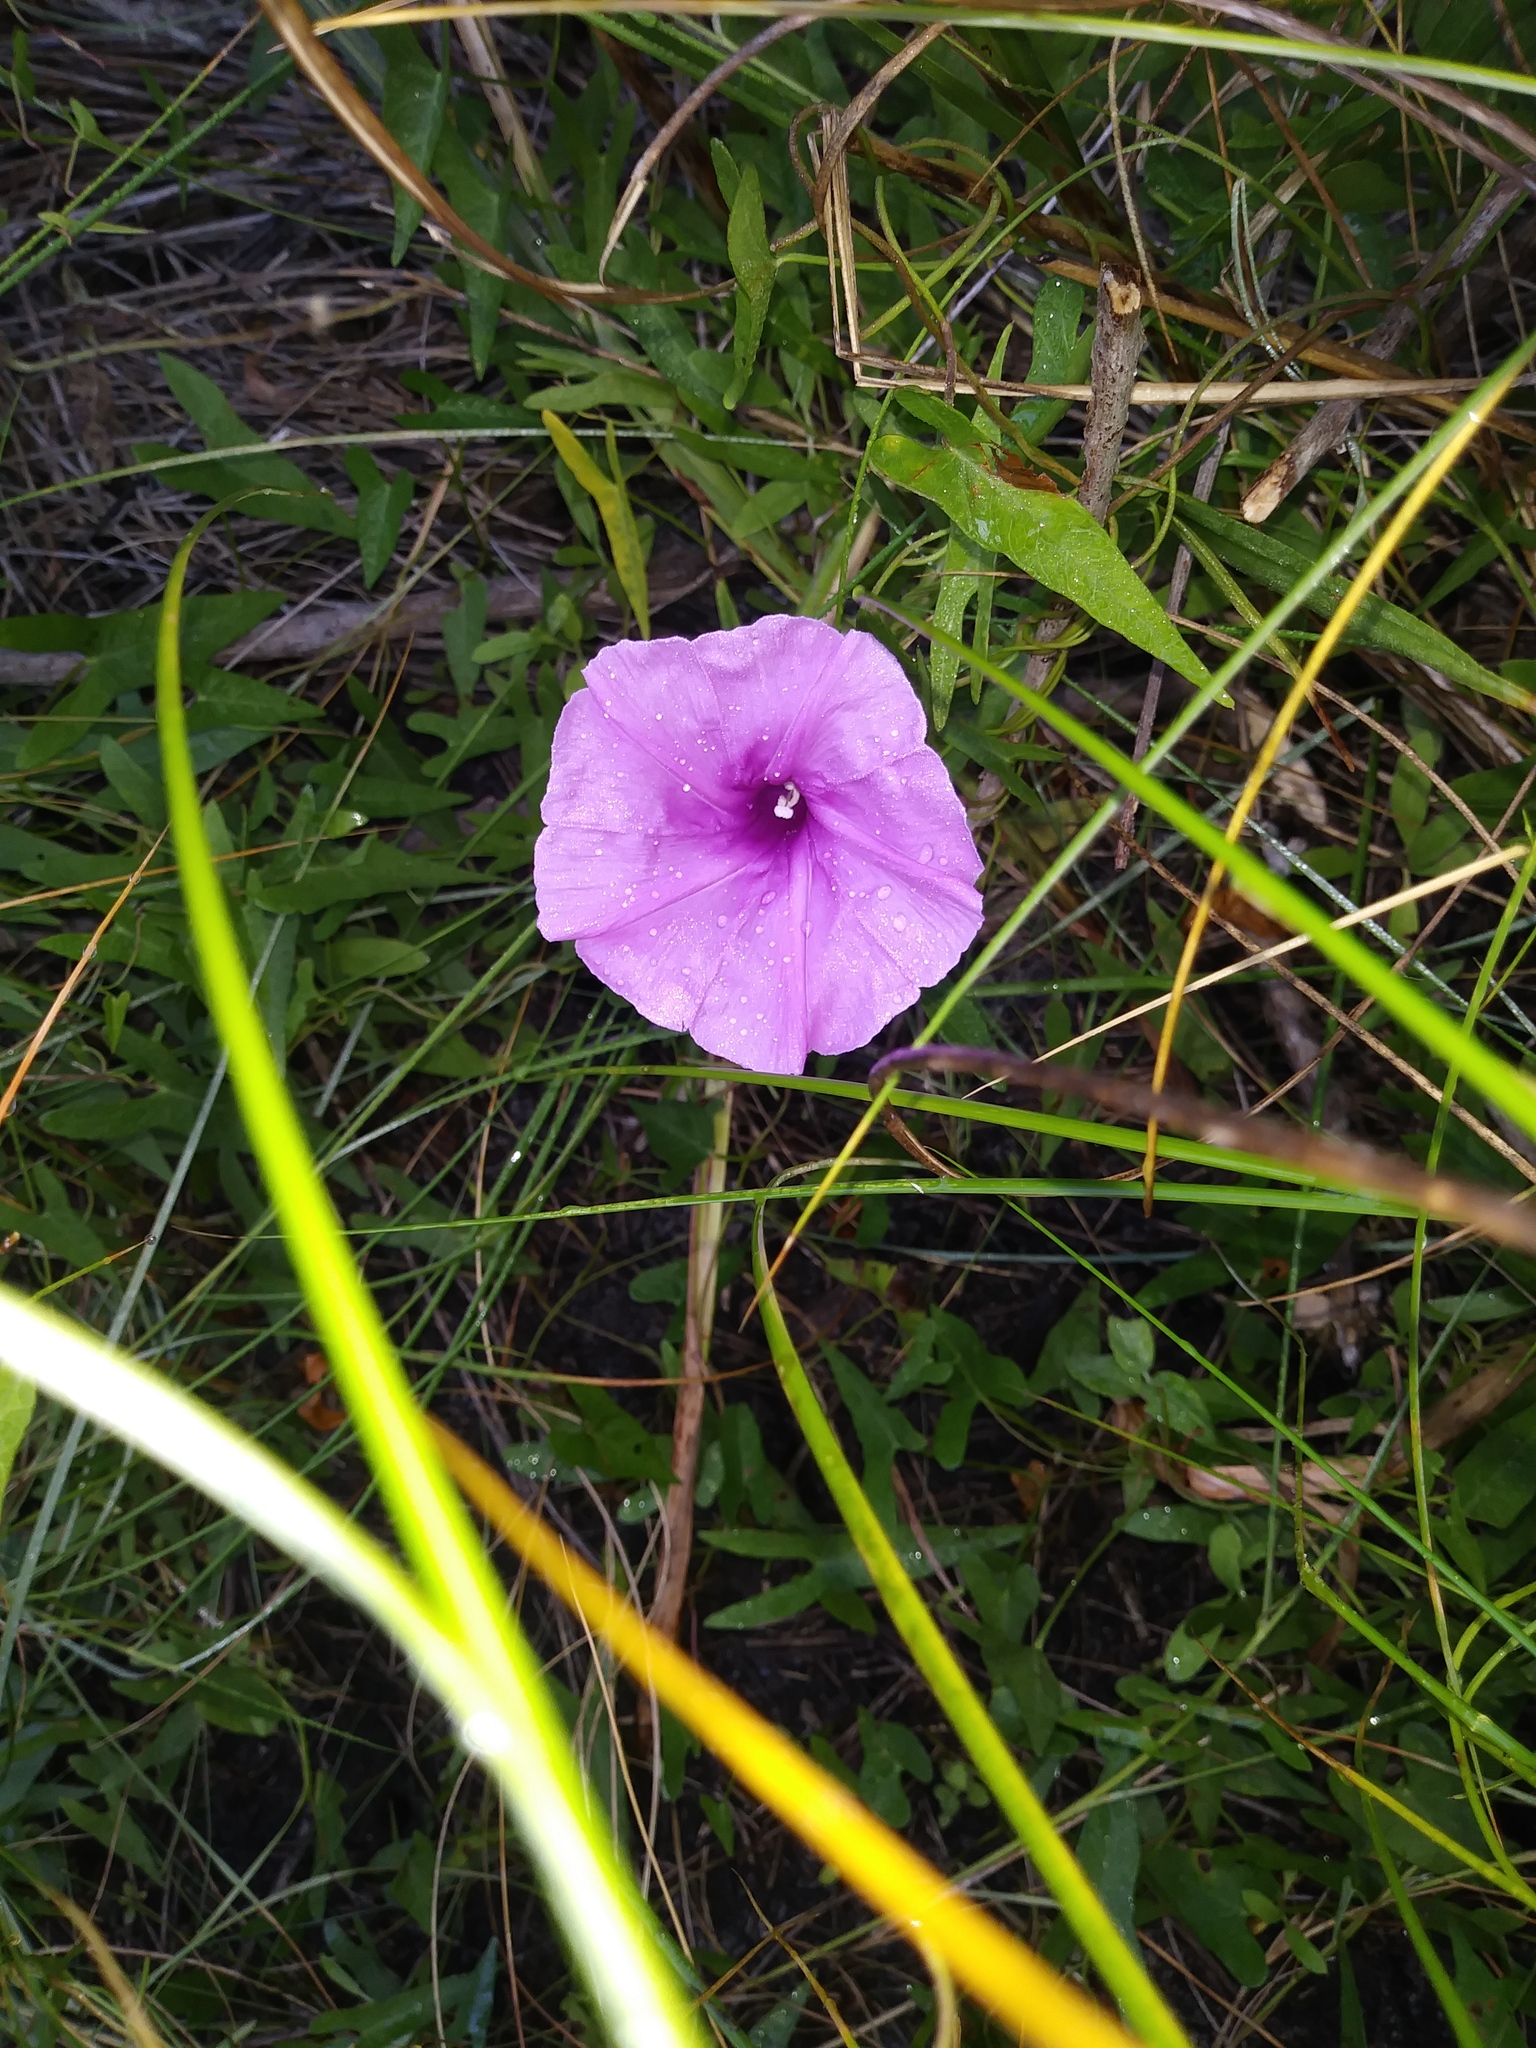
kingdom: Plantae
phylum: Tracheophyta
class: Magnoliopsida
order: Solanales
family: Convolvulaceae
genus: Ipomoea
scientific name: Ipomoea sagittata
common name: Saltmarsh morning glory
